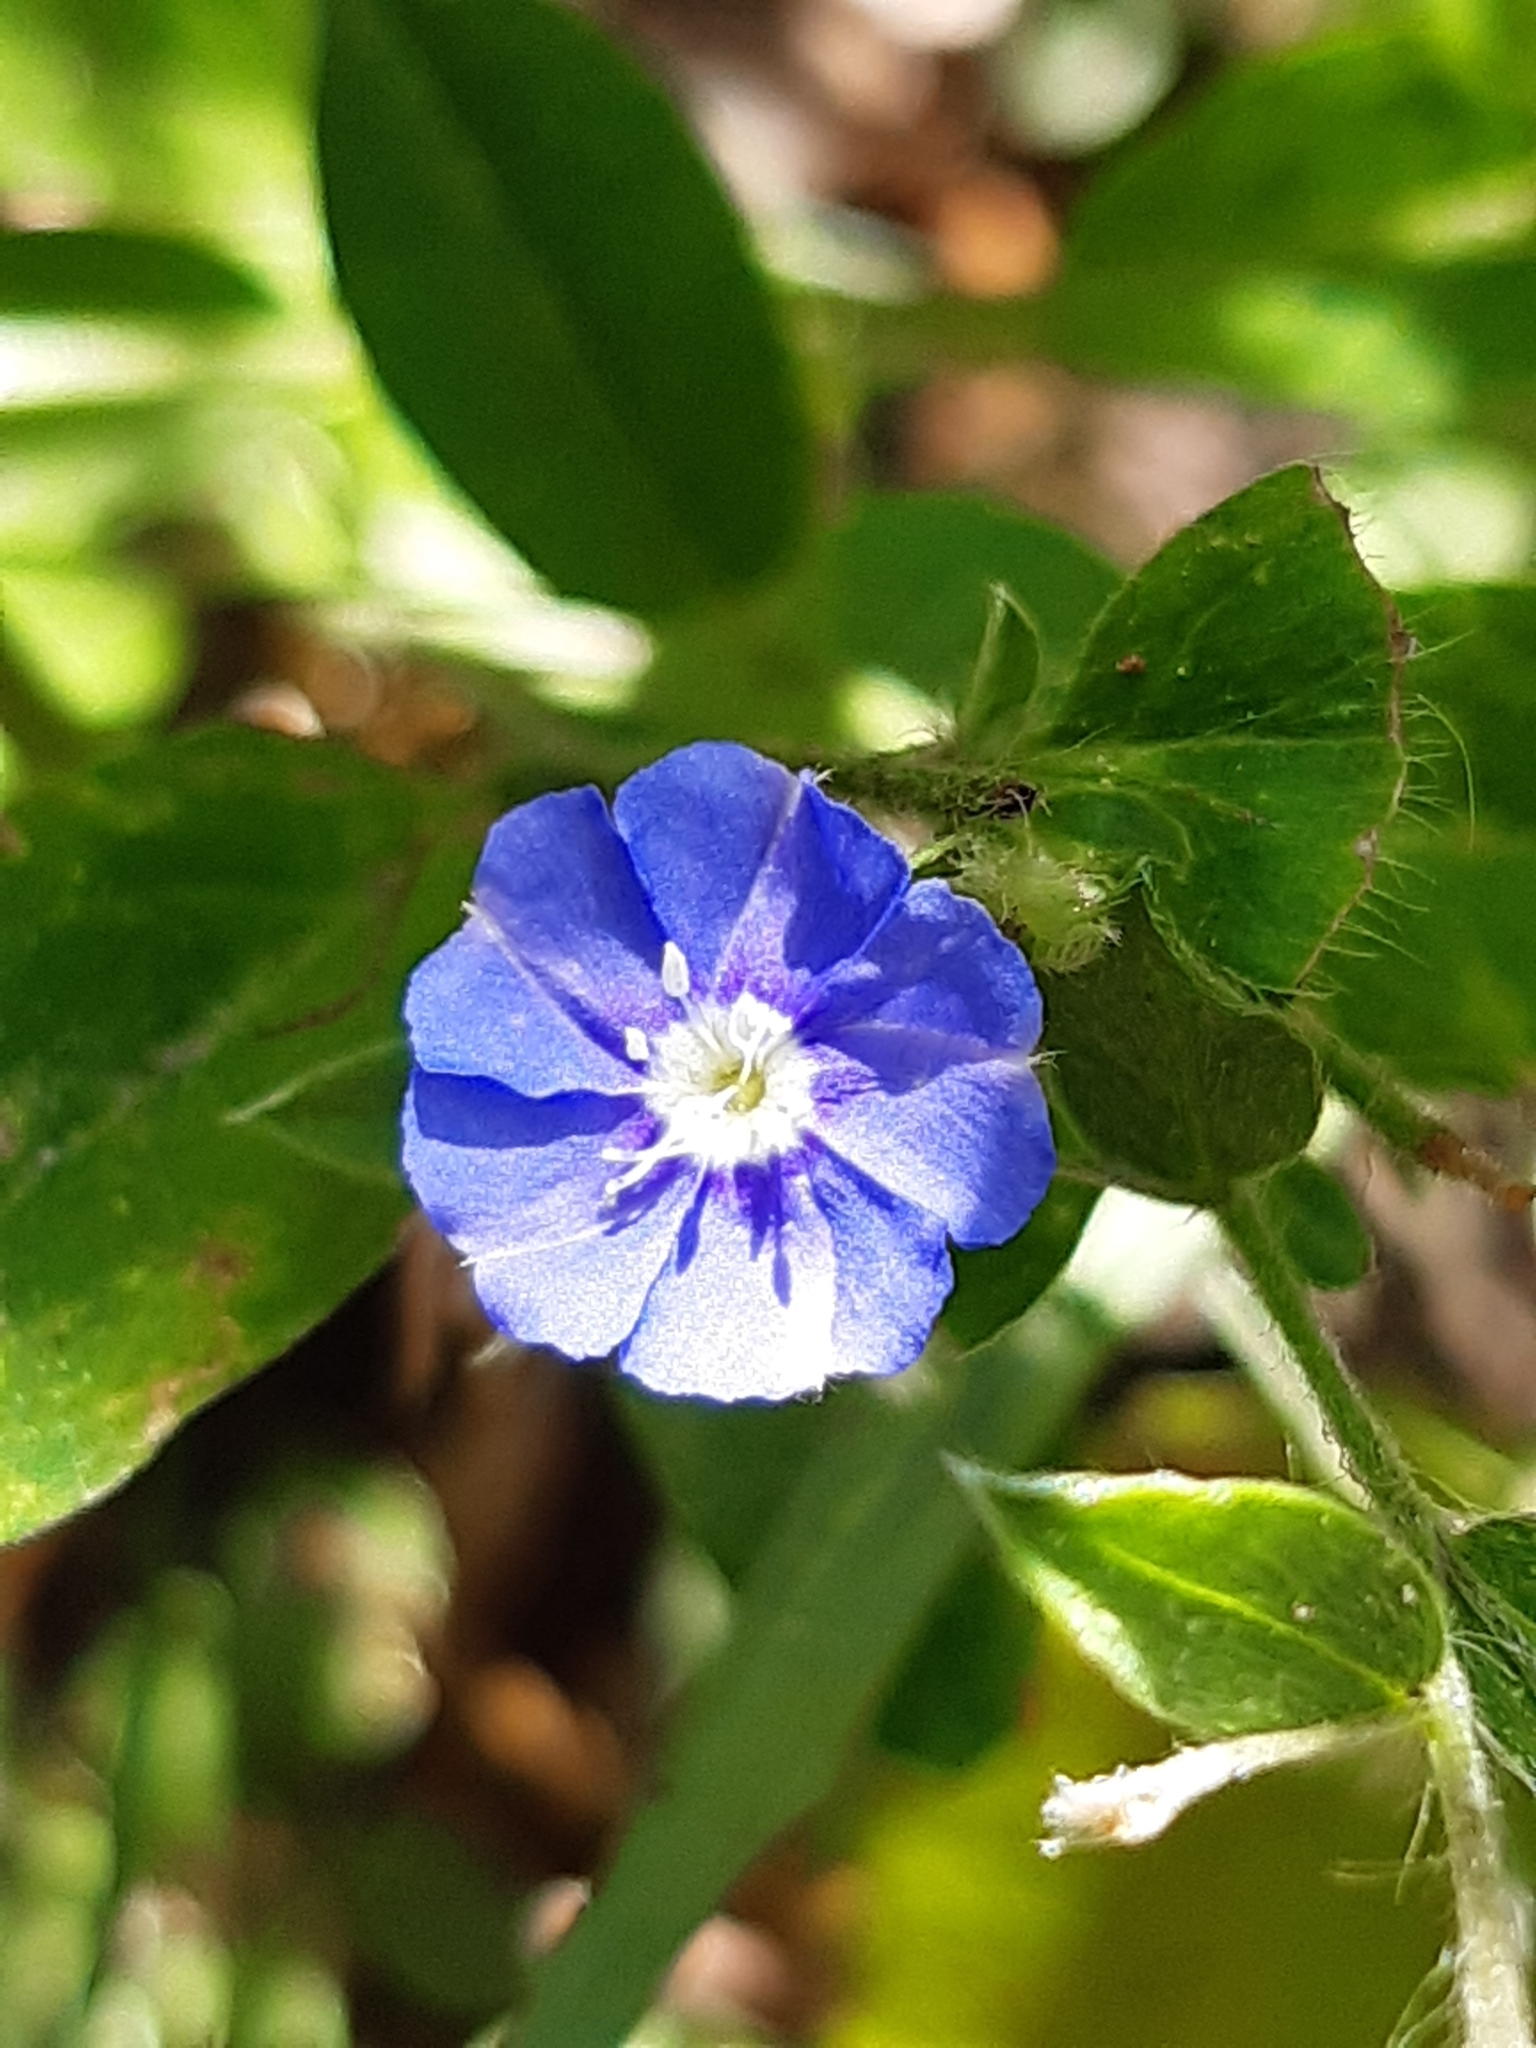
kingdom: Plantae
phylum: Tracheophyta
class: Magnoliopsida
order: Solanales
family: Convolvulaceae
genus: Evolvulus
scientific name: Evolvulus alsinoides
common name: Slender dwarf morning-glory
